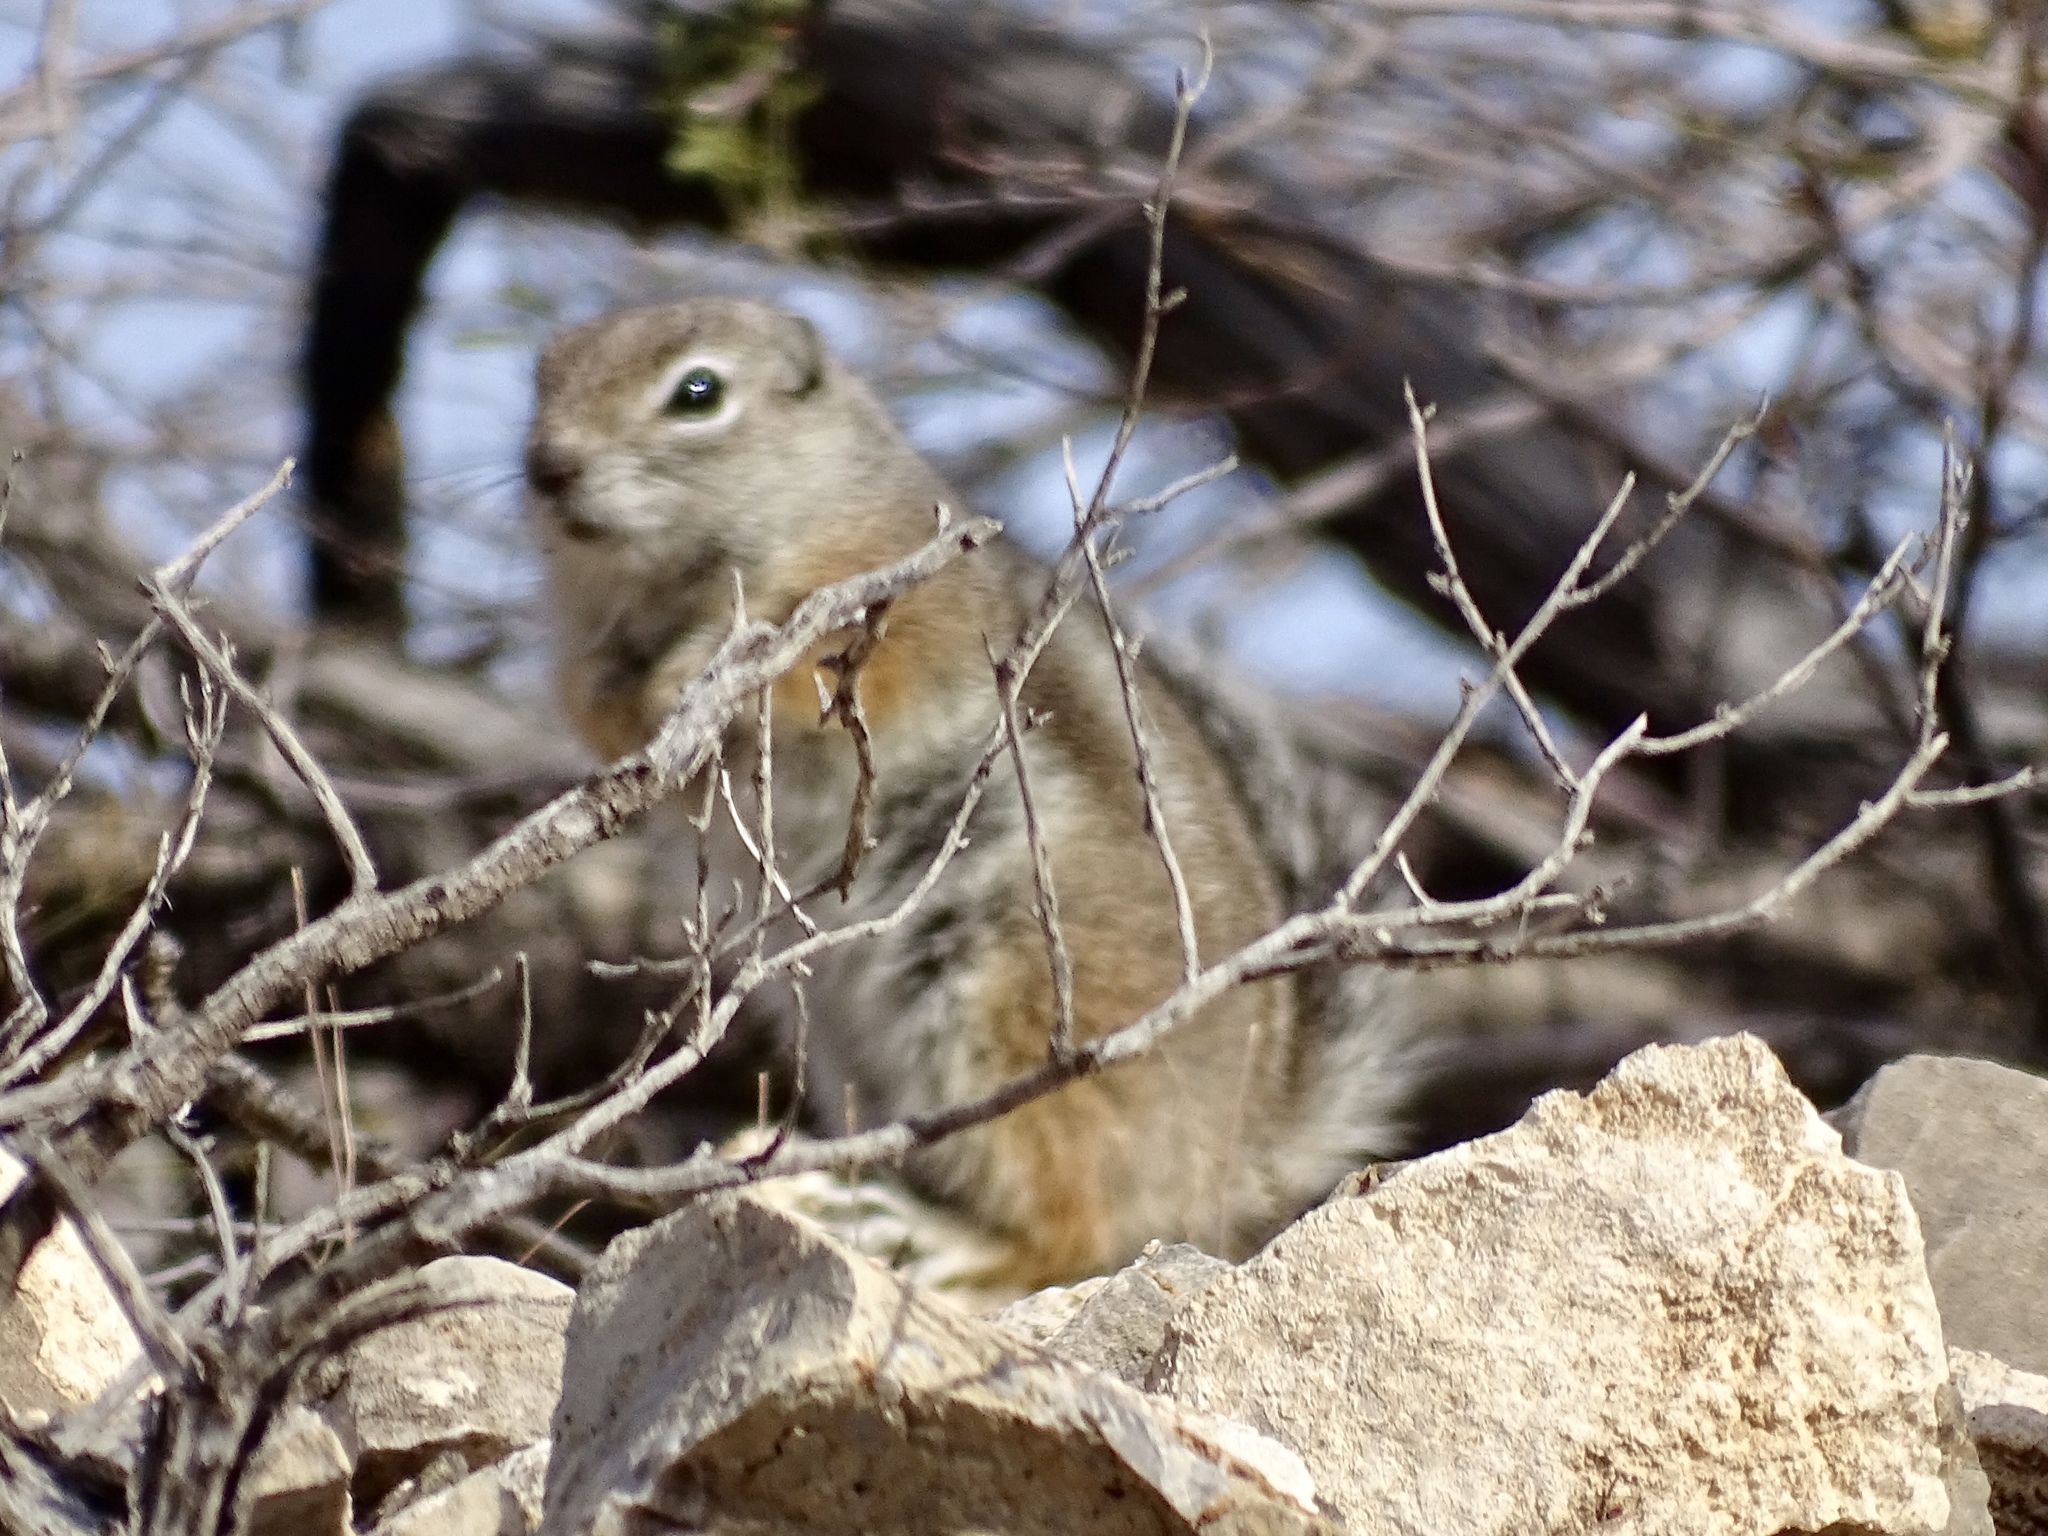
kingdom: Animalia
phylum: Chordata
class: Mammalia
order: Rodentia
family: Sciuridae
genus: Ammospermophilus
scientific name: Ammospermophilus interpres
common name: Texas antelope squirrel
